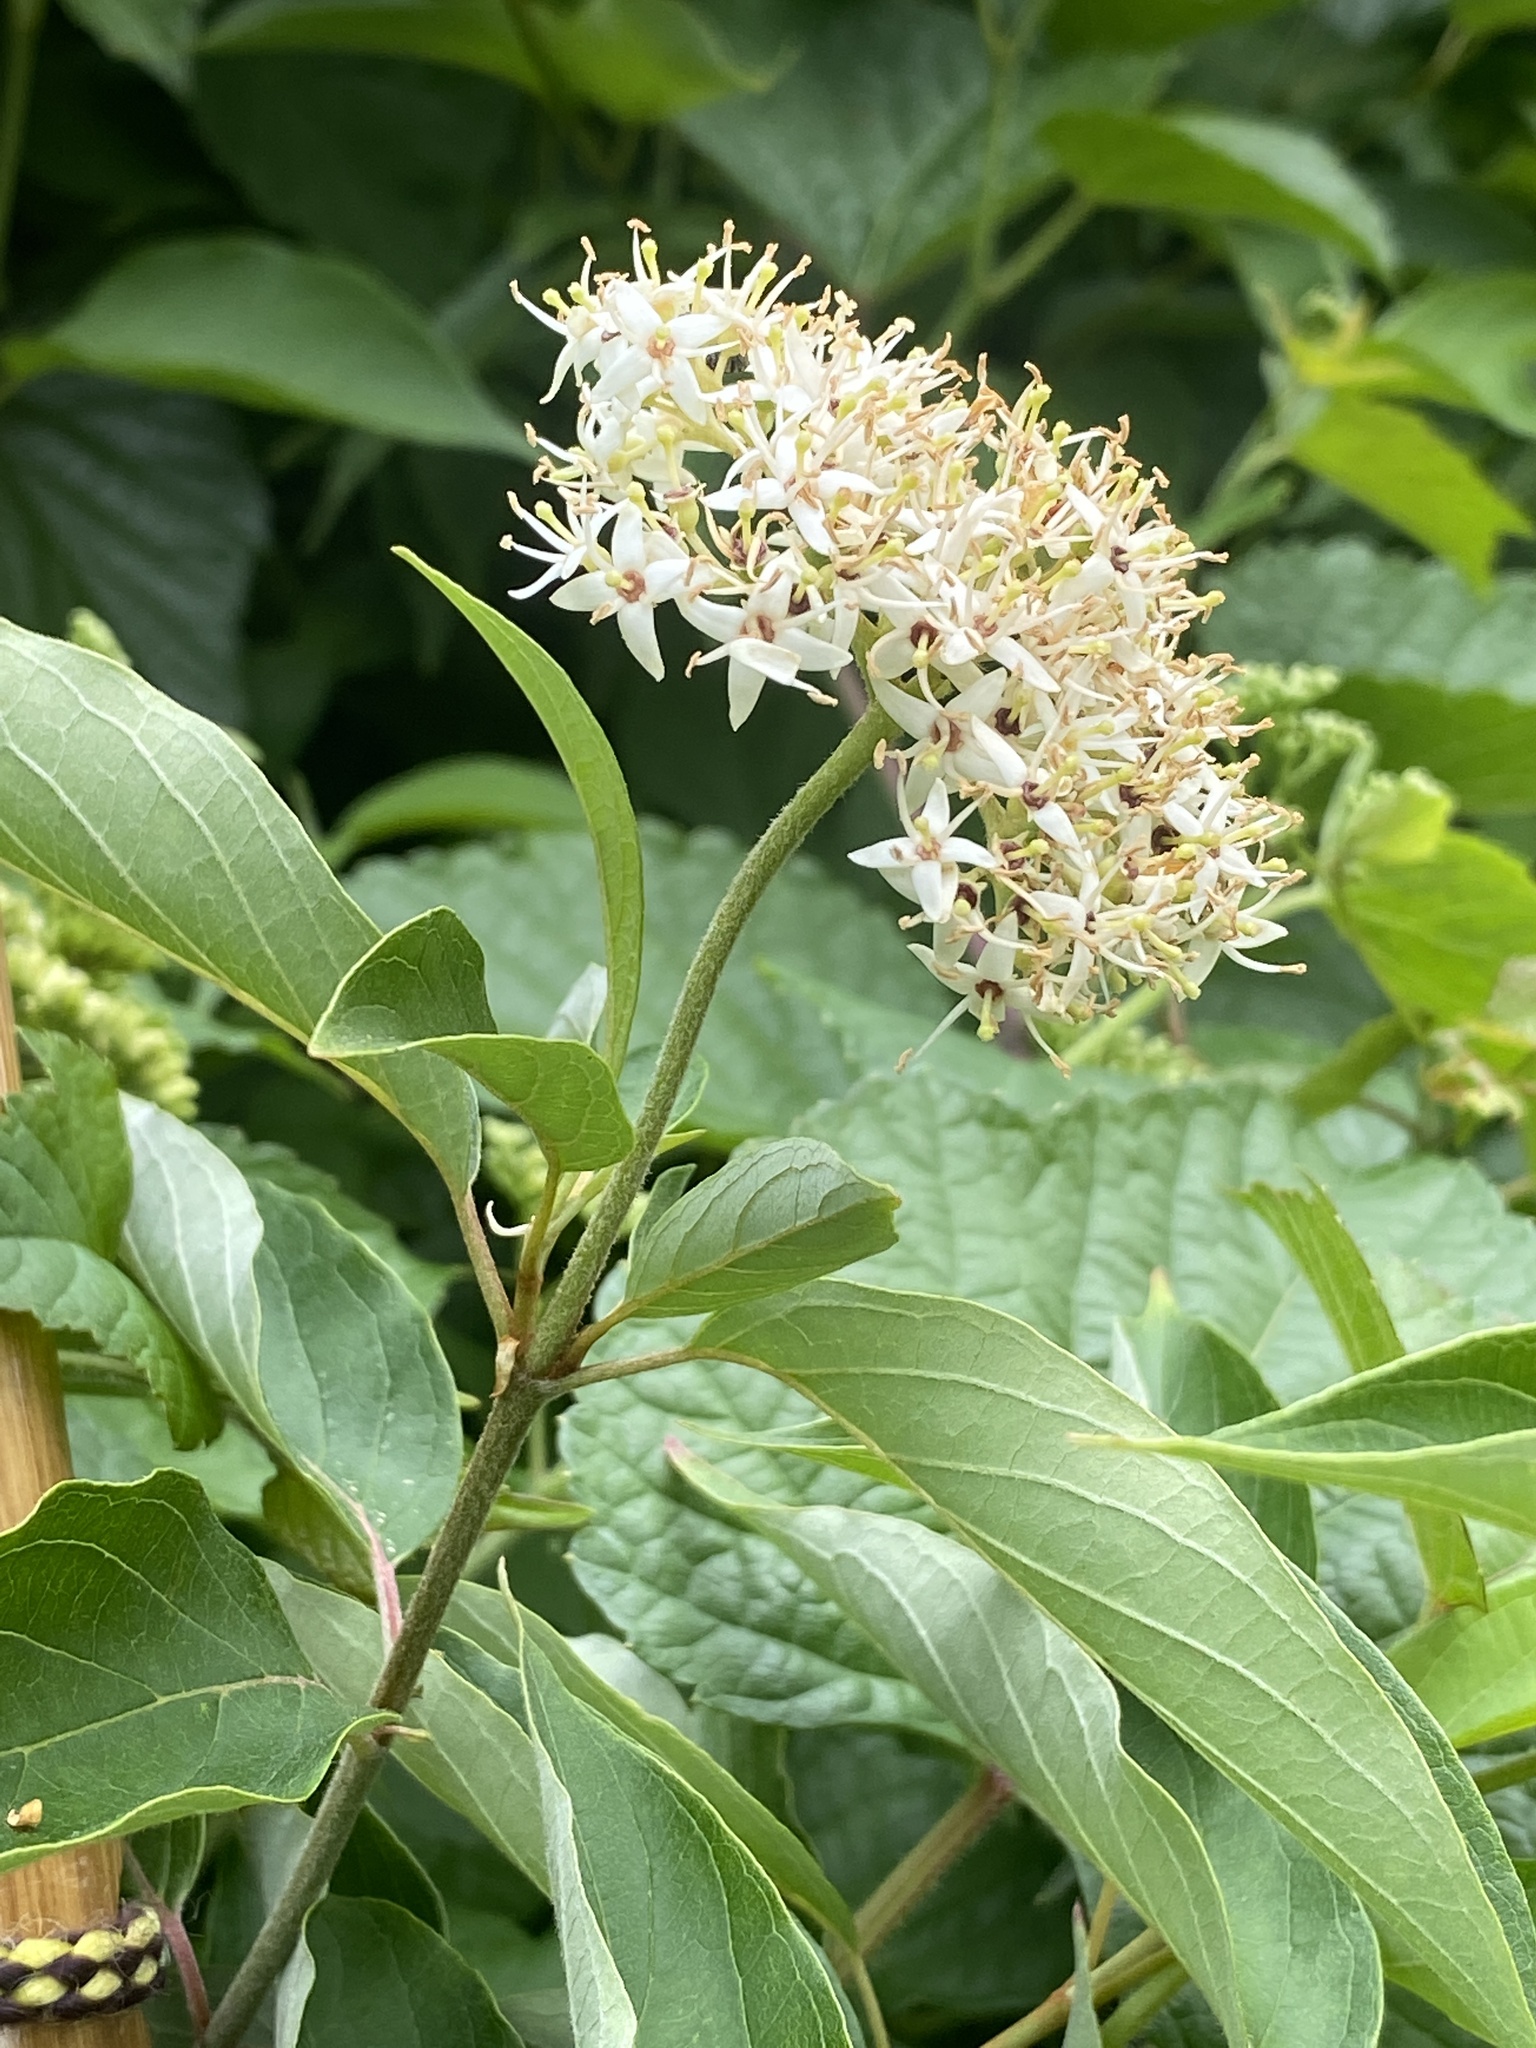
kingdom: Plantae
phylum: Tracheophyta
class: Magnoliopsida
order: Cornales
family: Cornaceae
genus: Cornus
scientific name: Cornus amomum
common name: Silky dogwood
